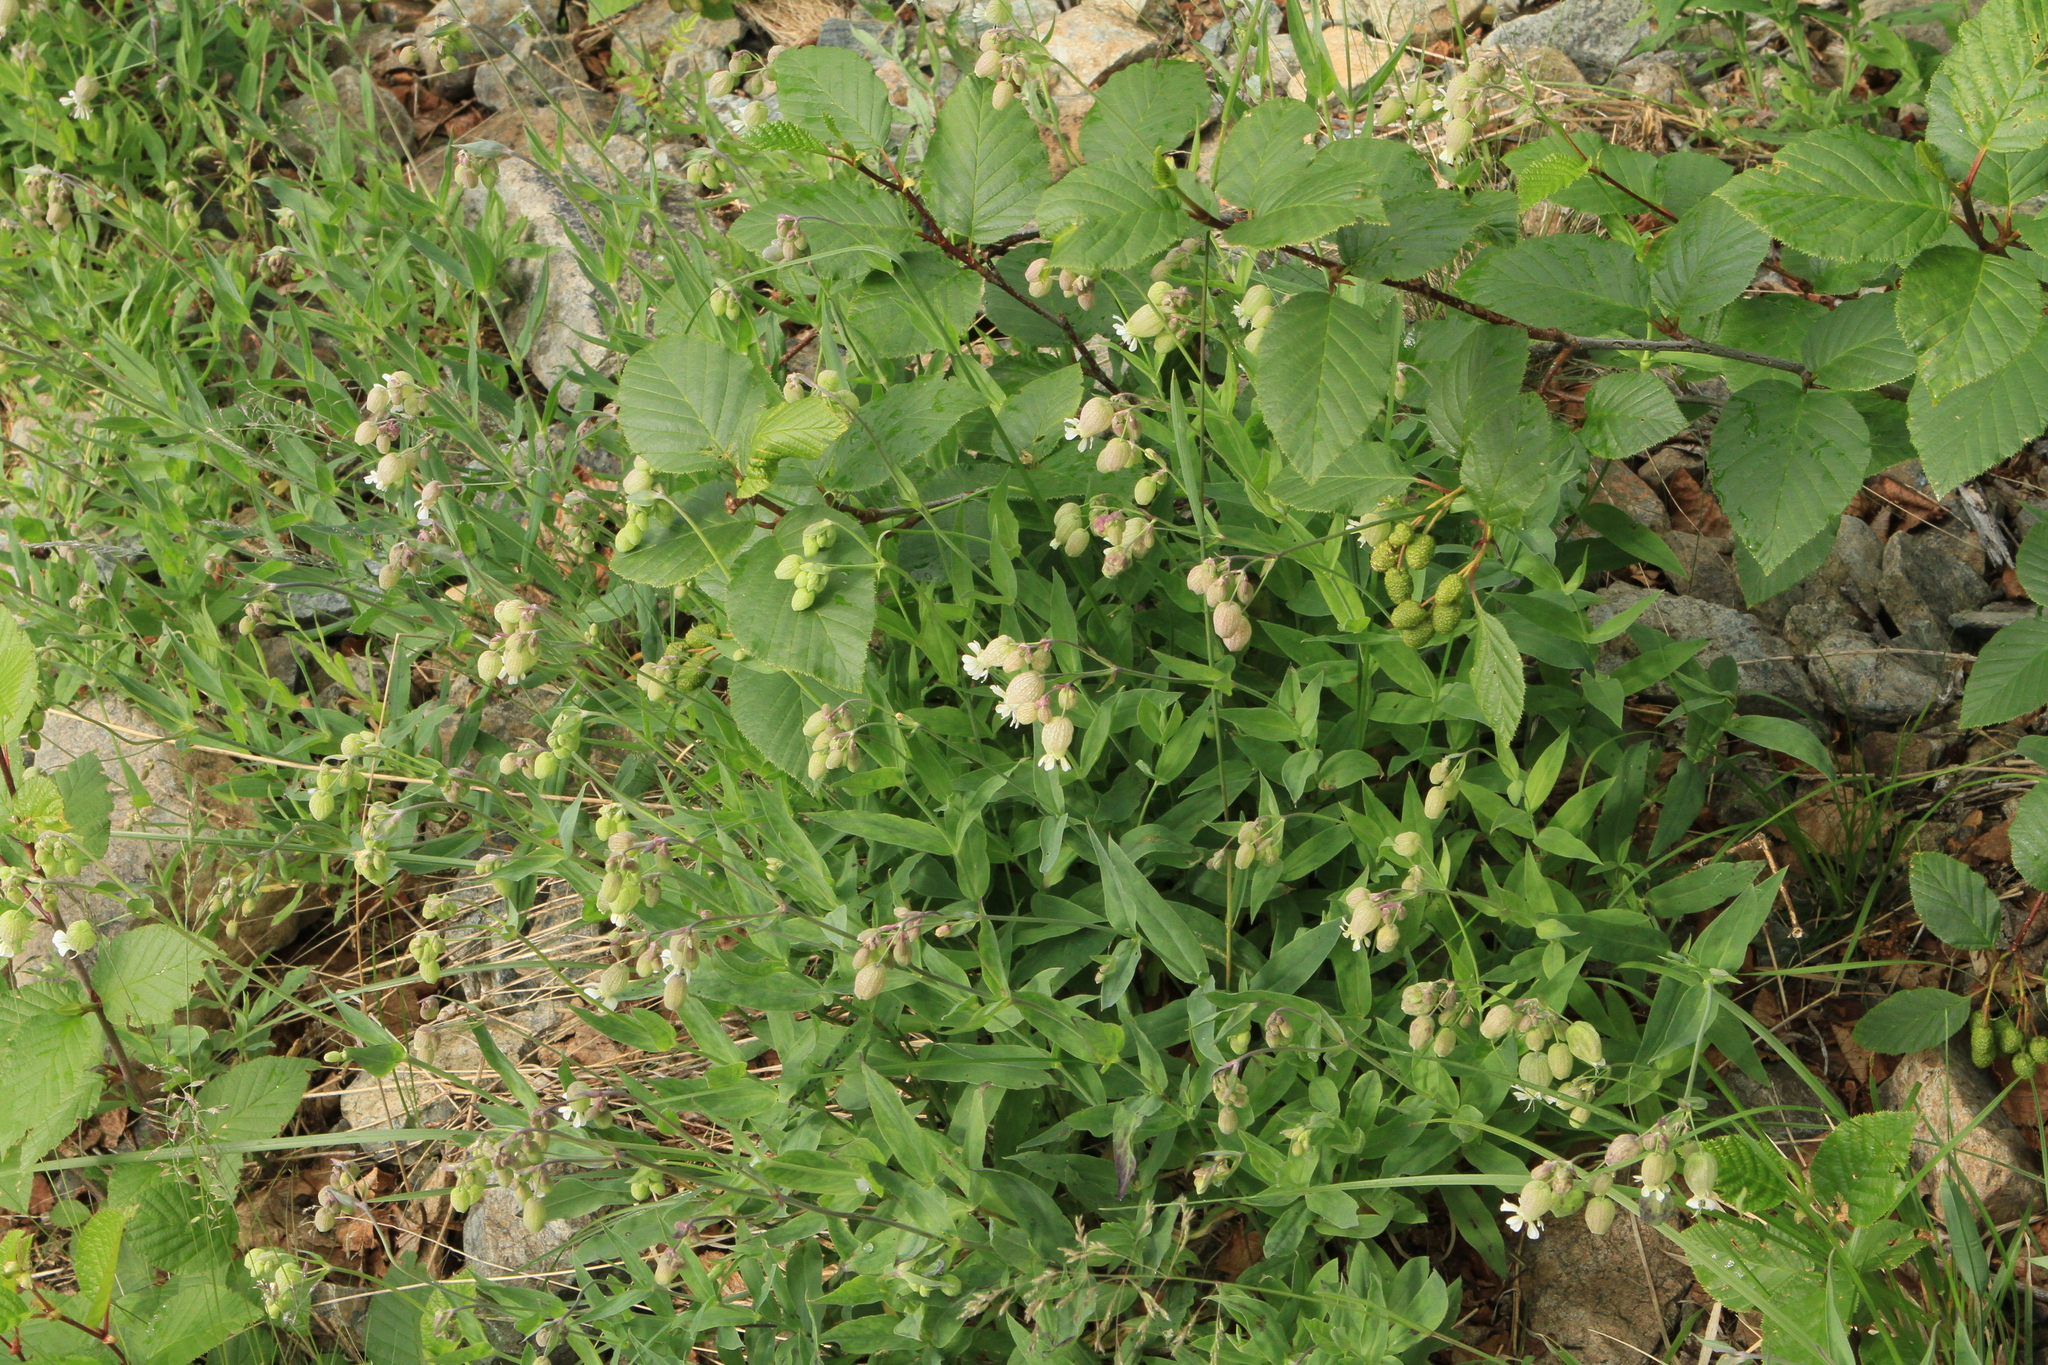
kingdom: Plantae
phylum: Tracheophyta
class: Magnoliopsida
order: Caryophyllales
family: Caryophyllaceae
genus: Silene
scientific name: Silene vulgaris
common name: Bladder campion
